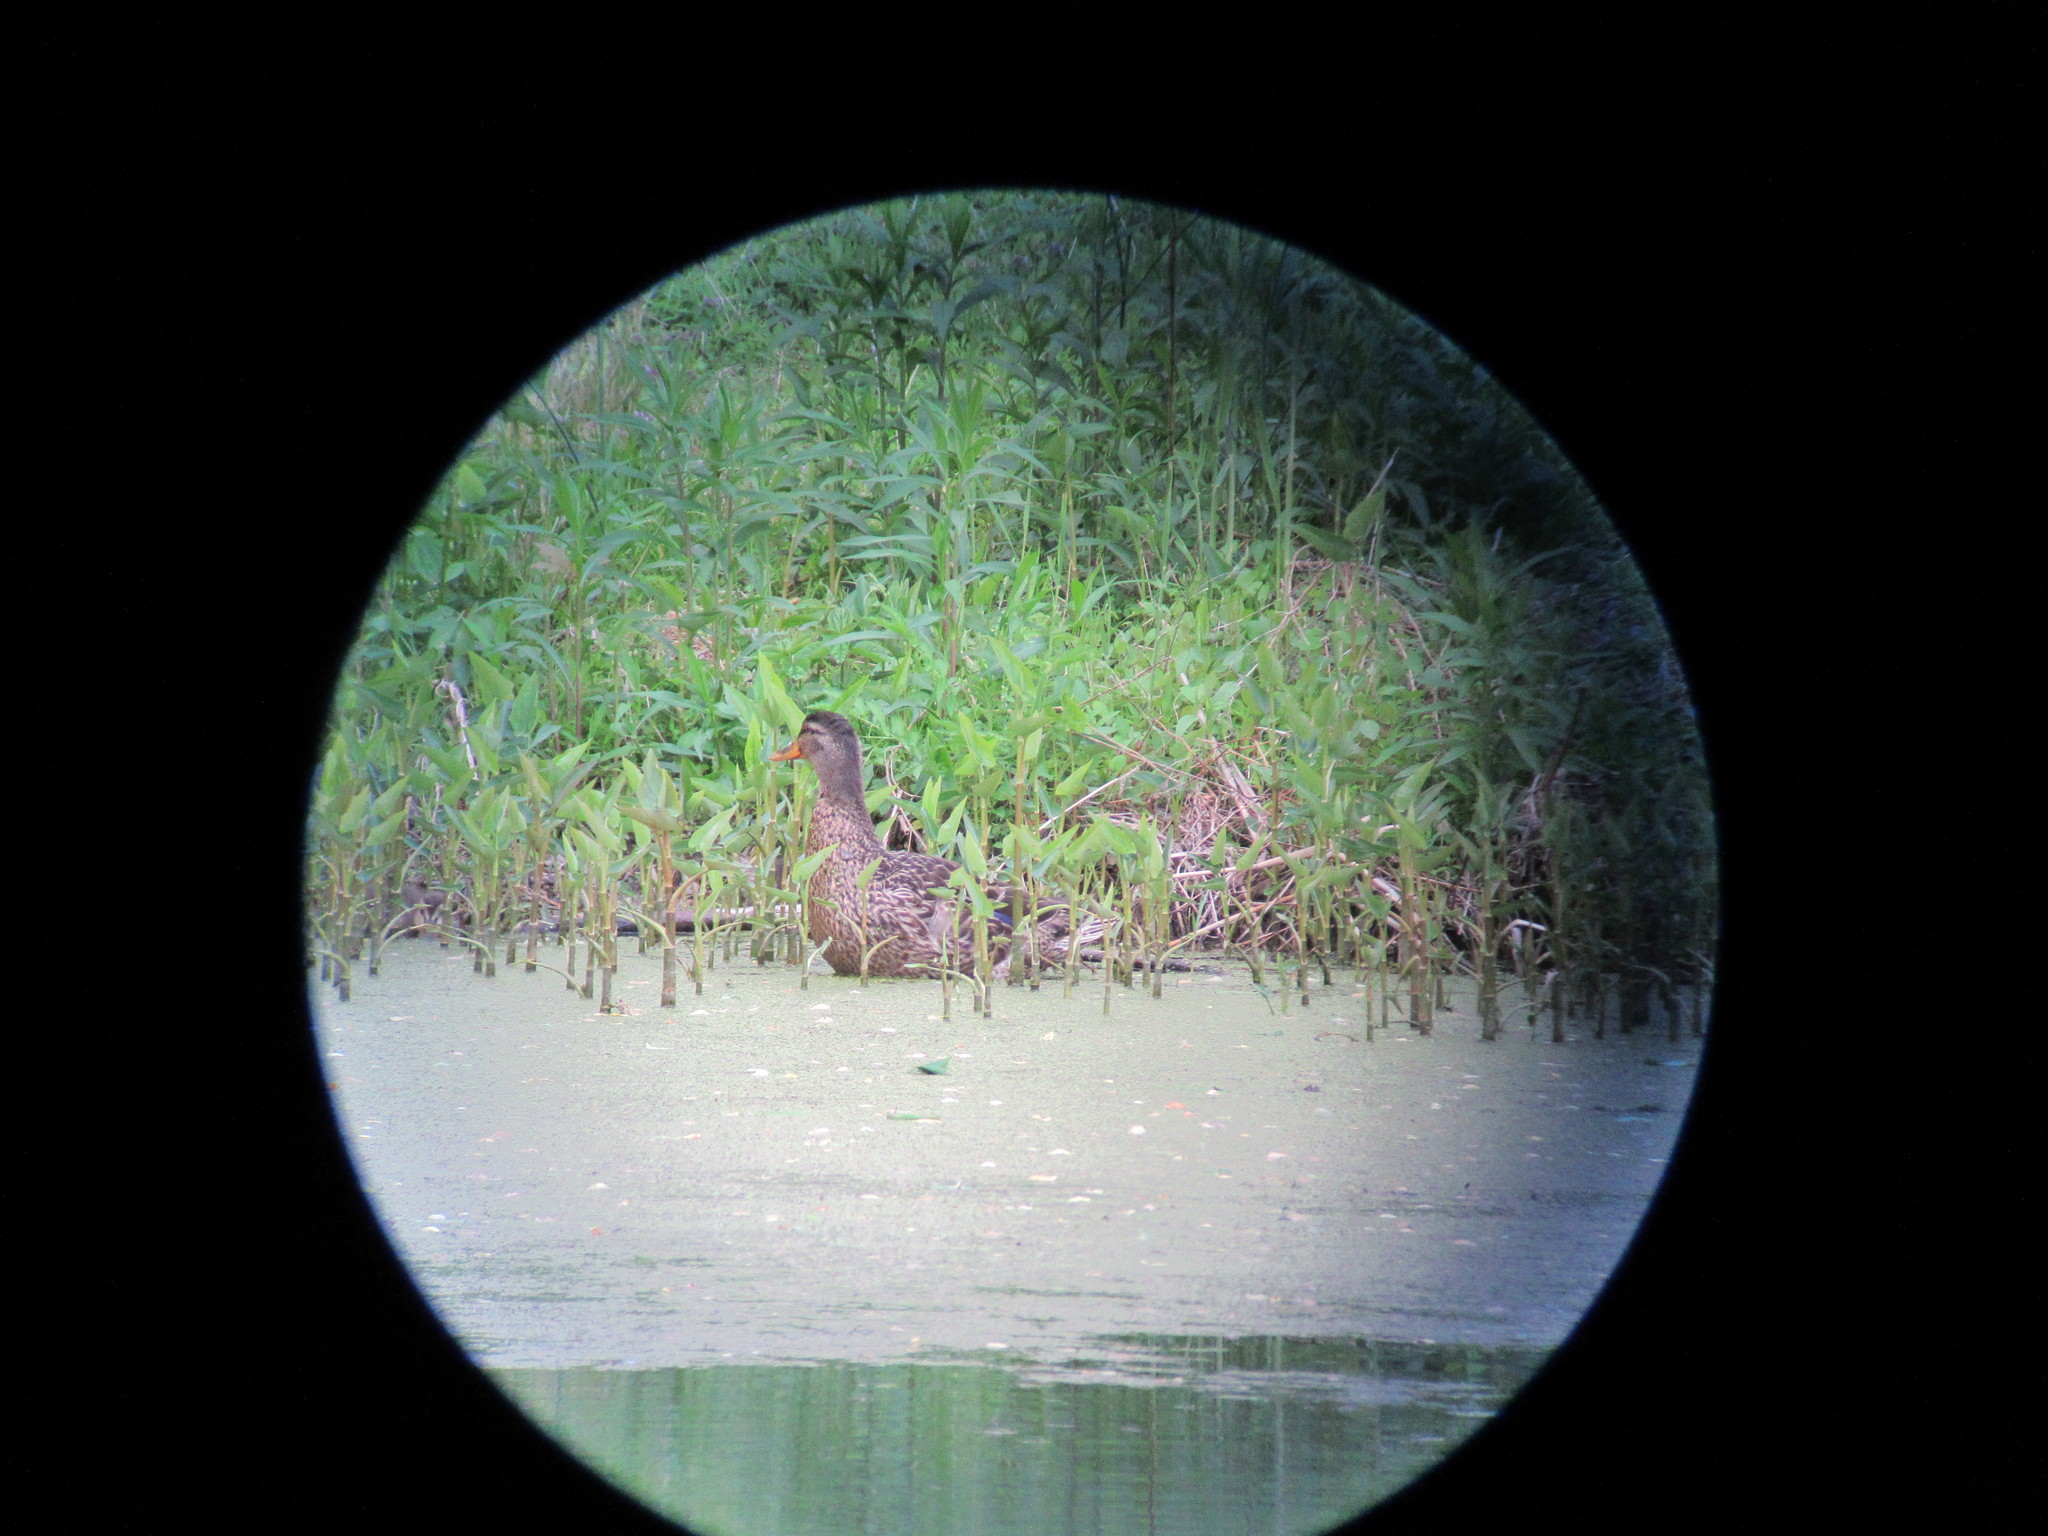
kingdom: Animalia
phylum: Chordata
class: Aves
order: Anseriformes
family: Anatidae
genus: Anas
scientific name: Anas platyrhynchos
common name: Mallard
